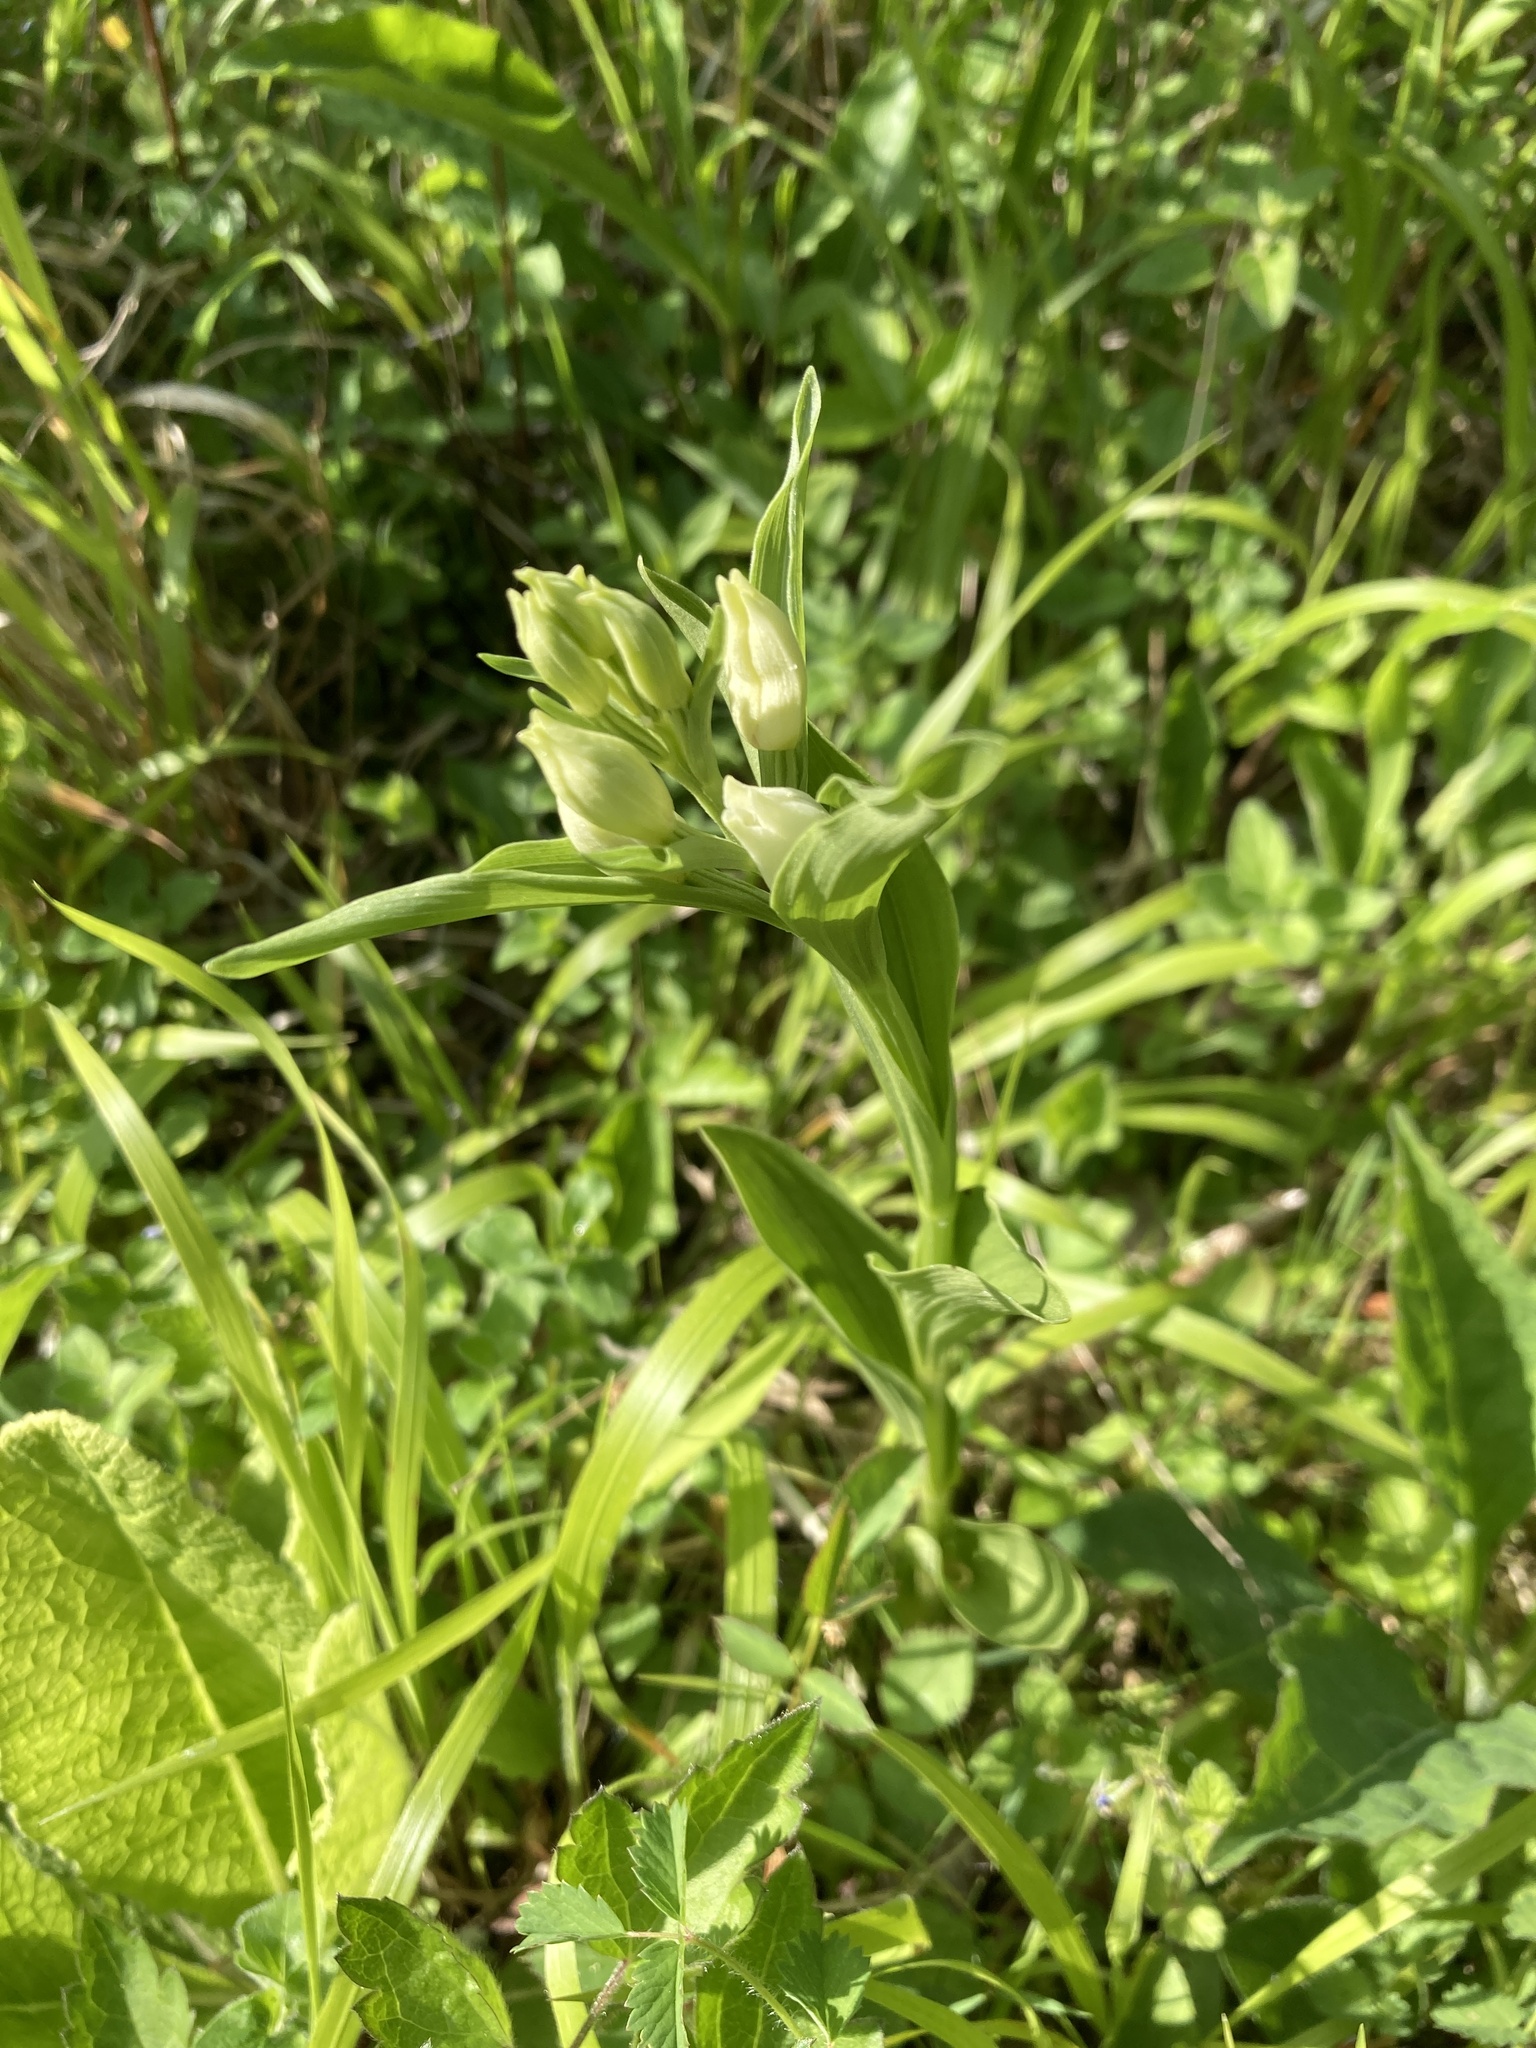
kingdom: Plantae
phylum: Tracheophyta
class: Liliopsida
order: Asparagales
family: Orchidaceae
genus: Cephalanthera
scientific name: Cephalanthera damasonium
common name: White helleborine
